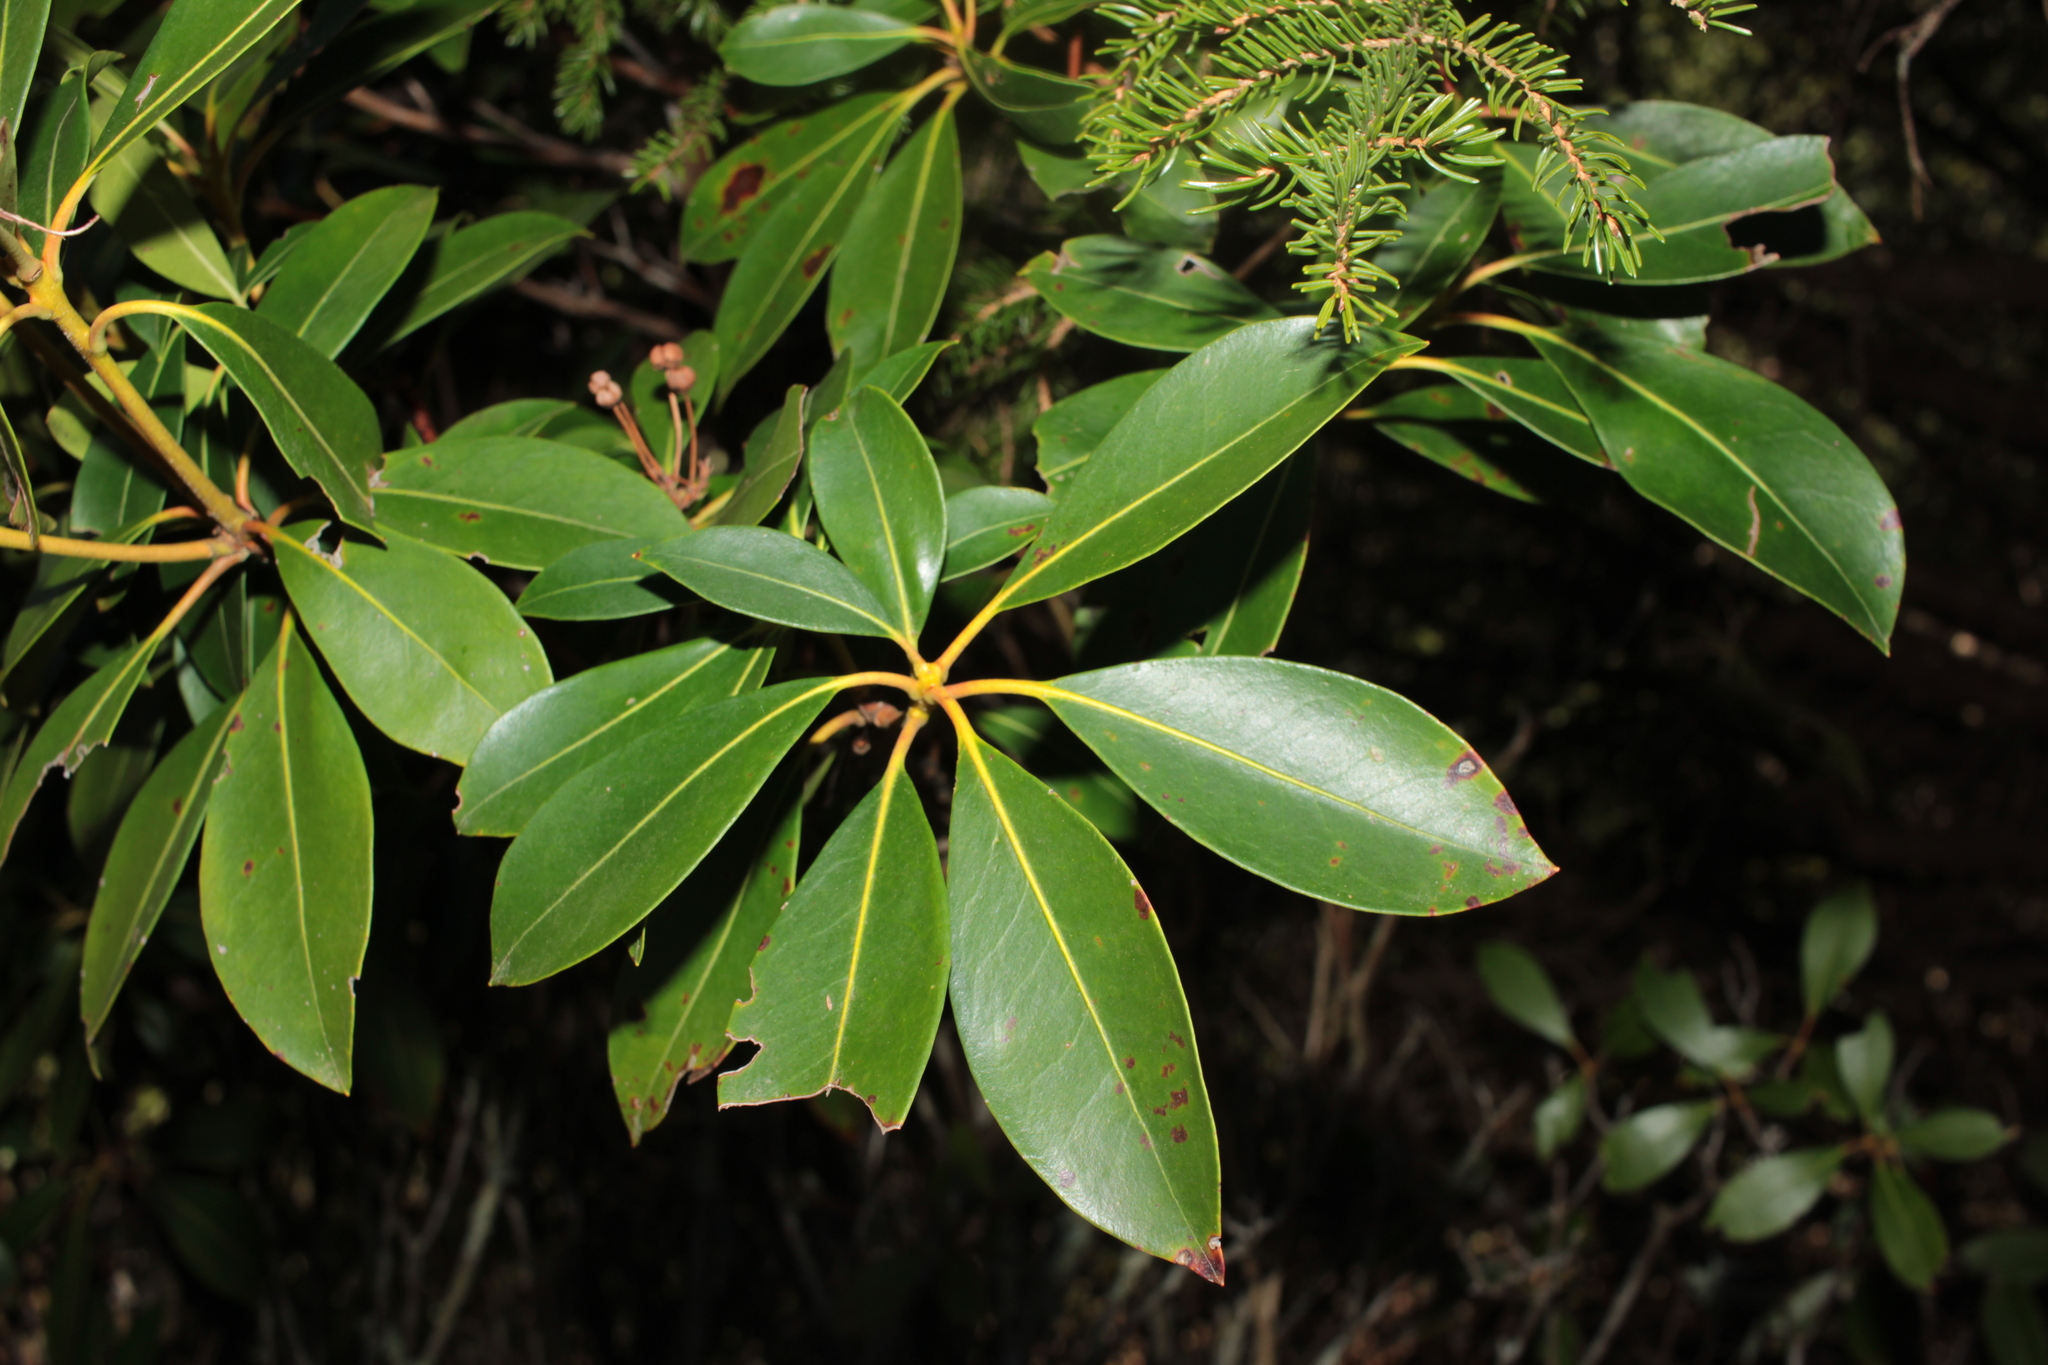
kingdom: Plantae
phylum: Tracheophyta
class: Magnoliopsida
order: Ericales
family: Ericaceae
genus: Kalmia
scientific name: Kalmia latifolia
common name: Mountain-laurel
